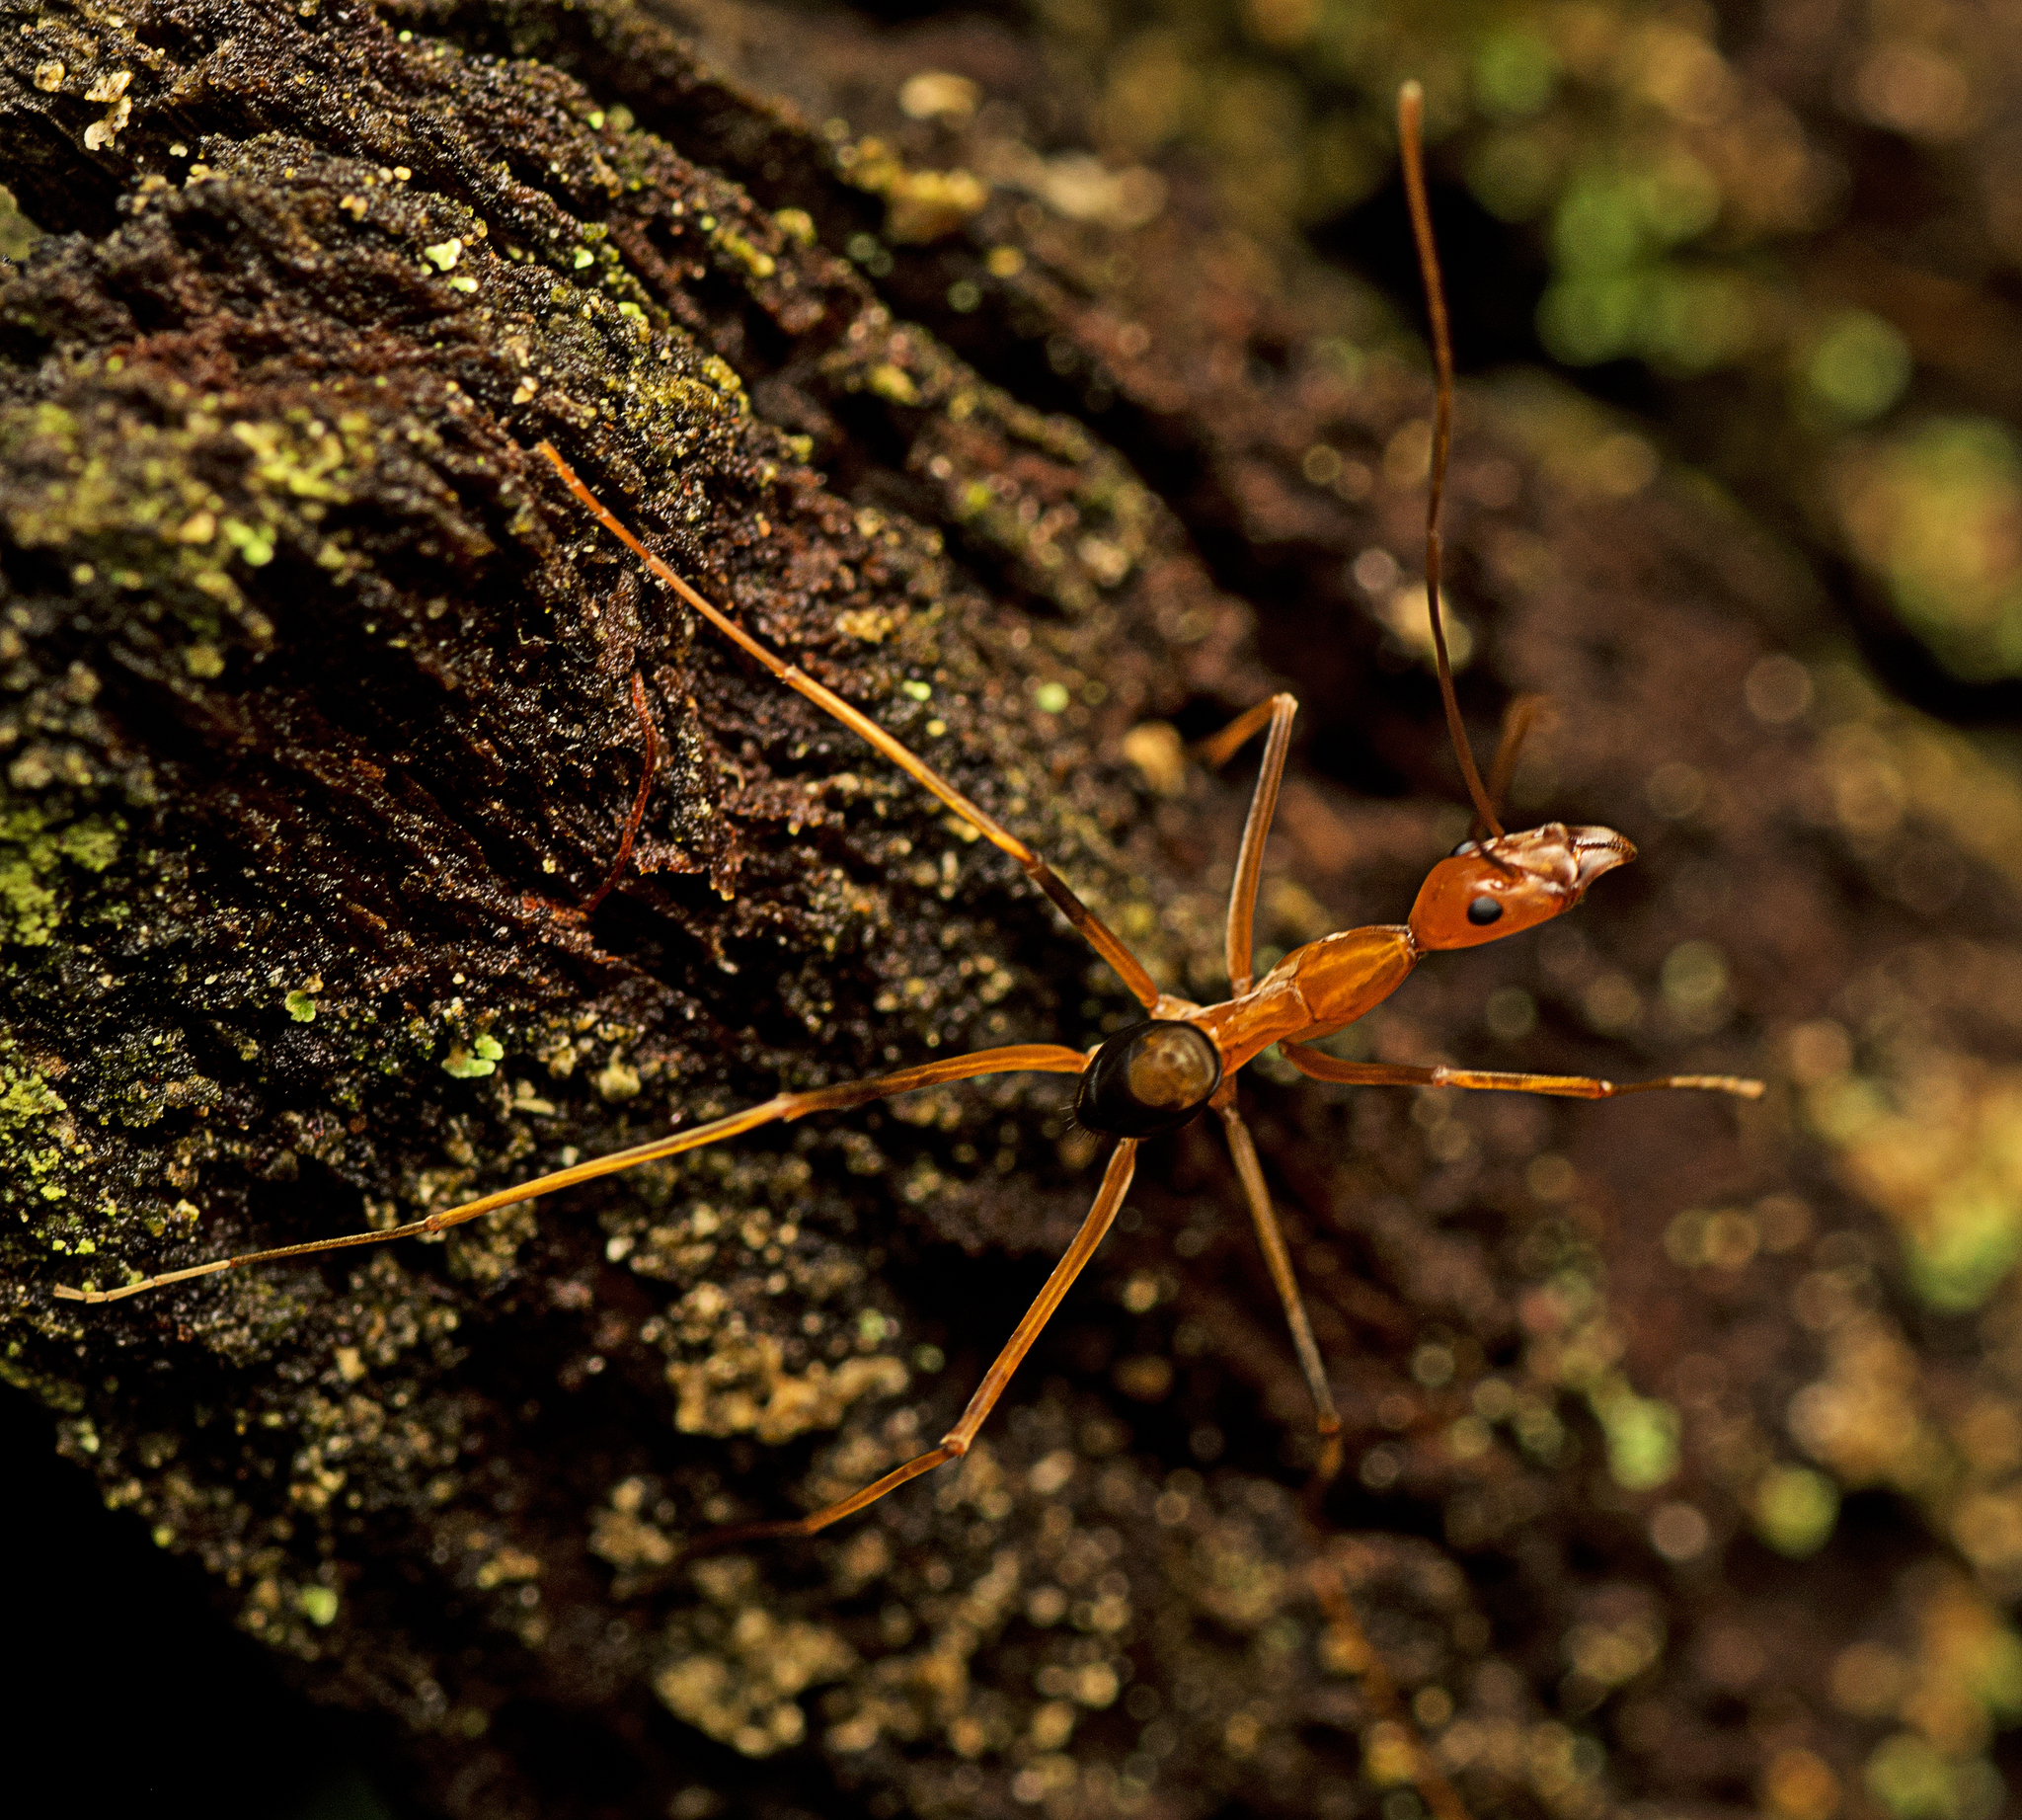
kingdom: Animalia
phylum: Arthropoda
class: Insecta
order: Hymenoptera
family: Formicidae
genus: Leptomyrmex
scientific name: Leptomyrmex rufipes
